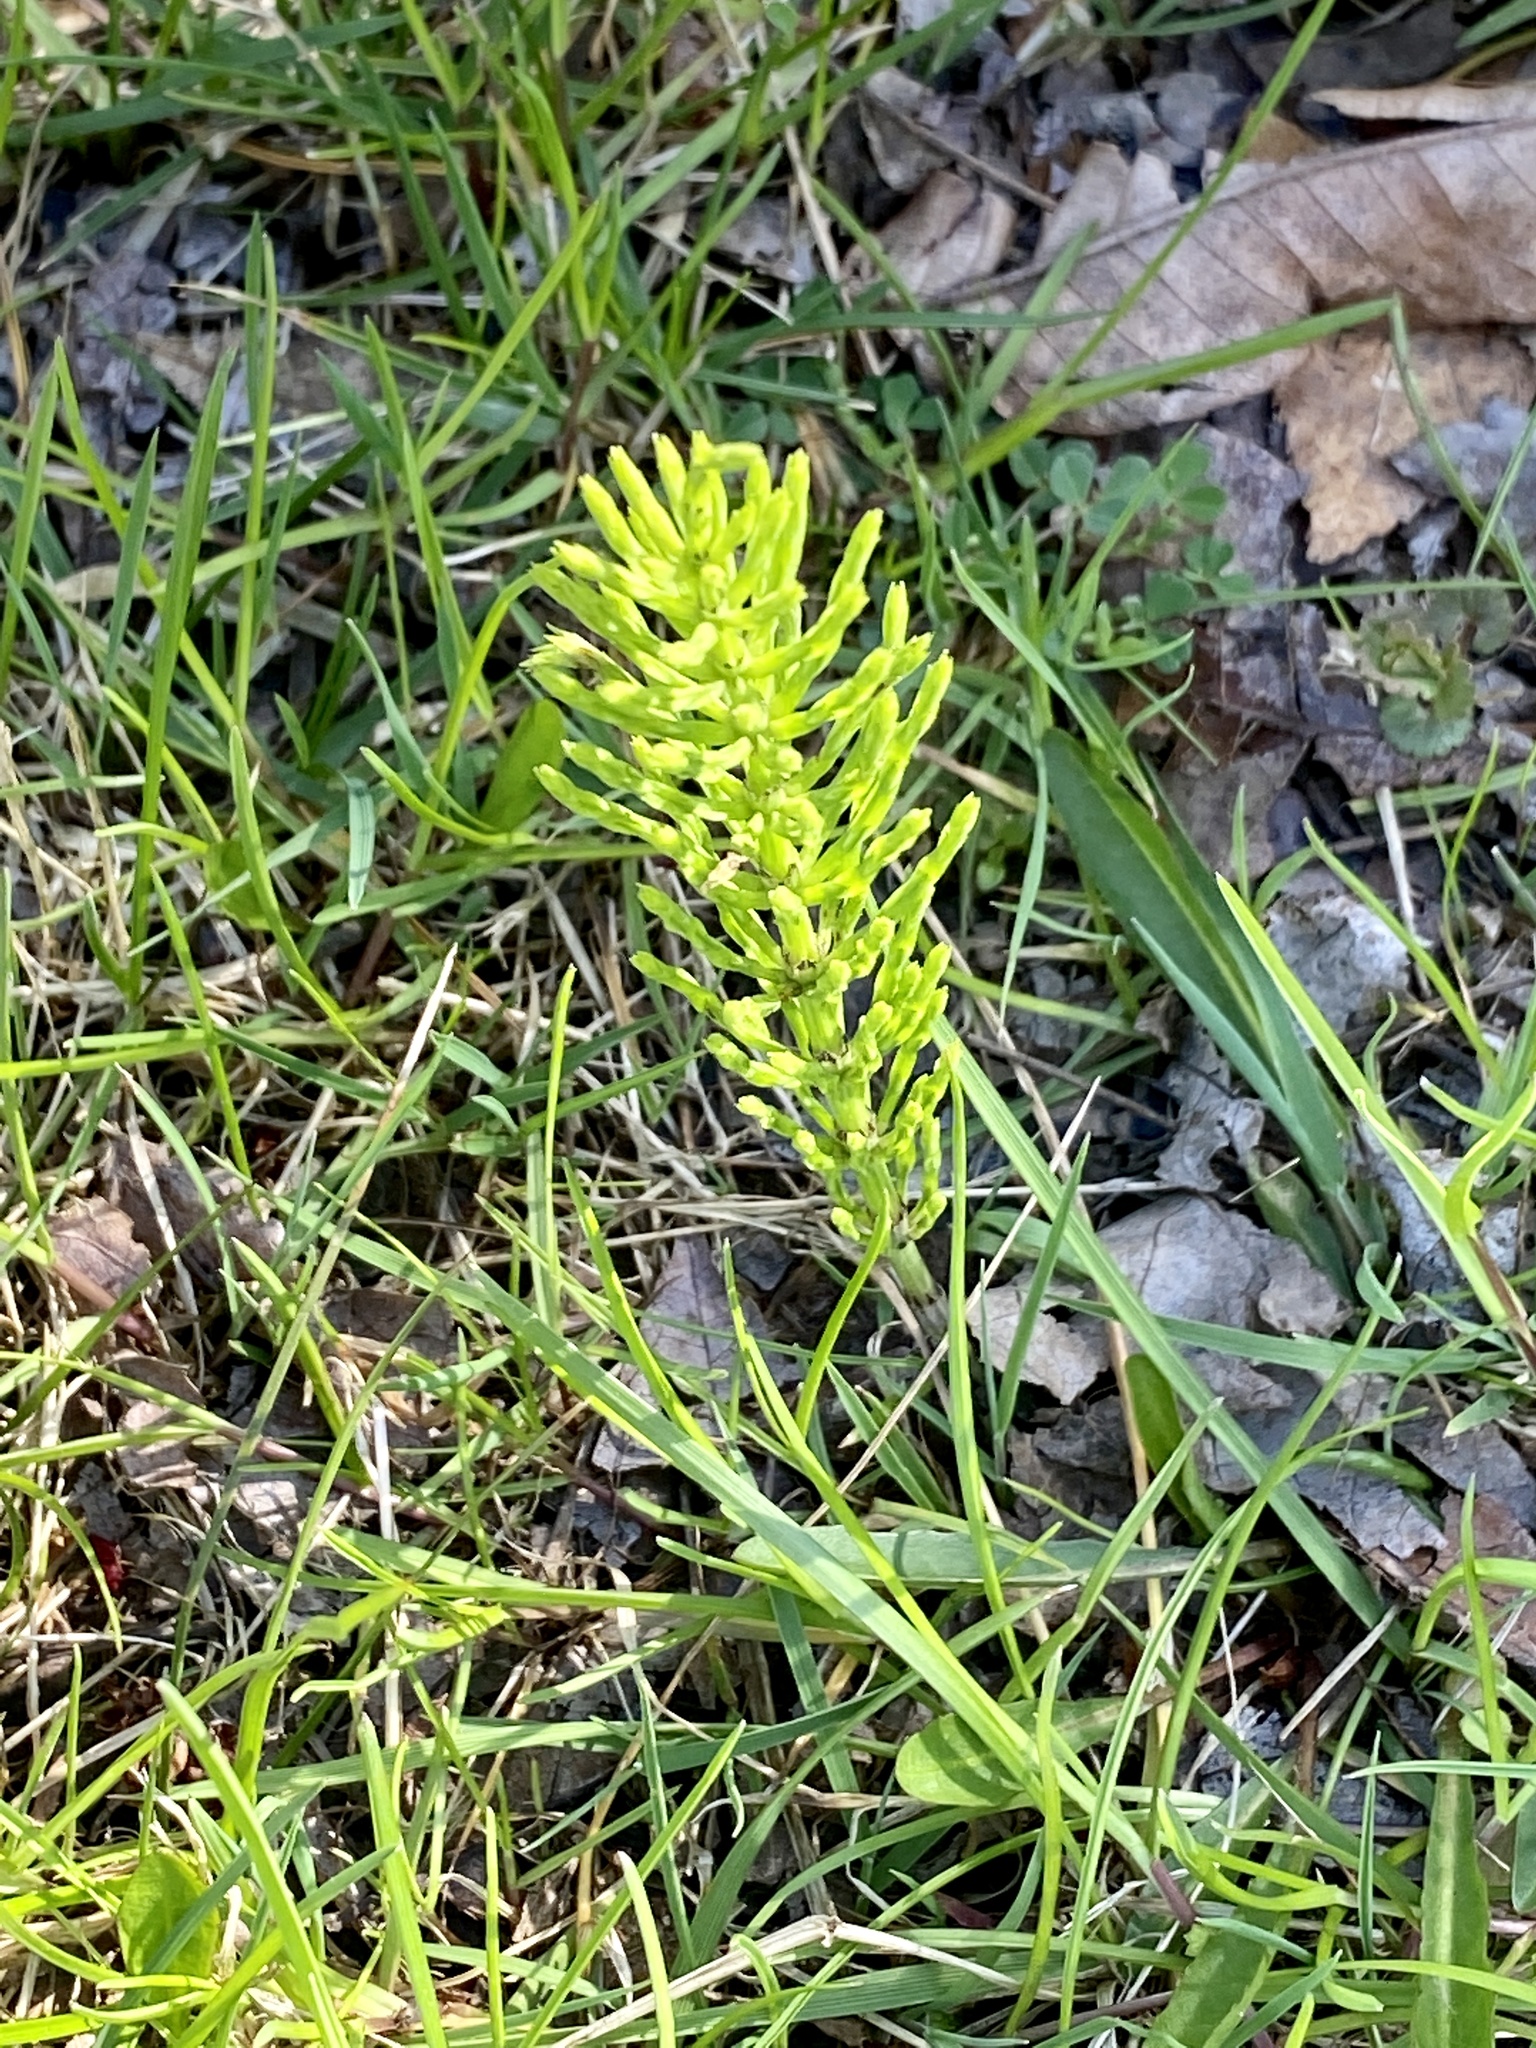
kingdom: Plantae
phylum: Tracheophyta
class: Polypodiopsida
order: Equisetales
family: Equisetaceae
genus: Equisetum
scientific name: Equisetum arvense
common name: Field horsetail
